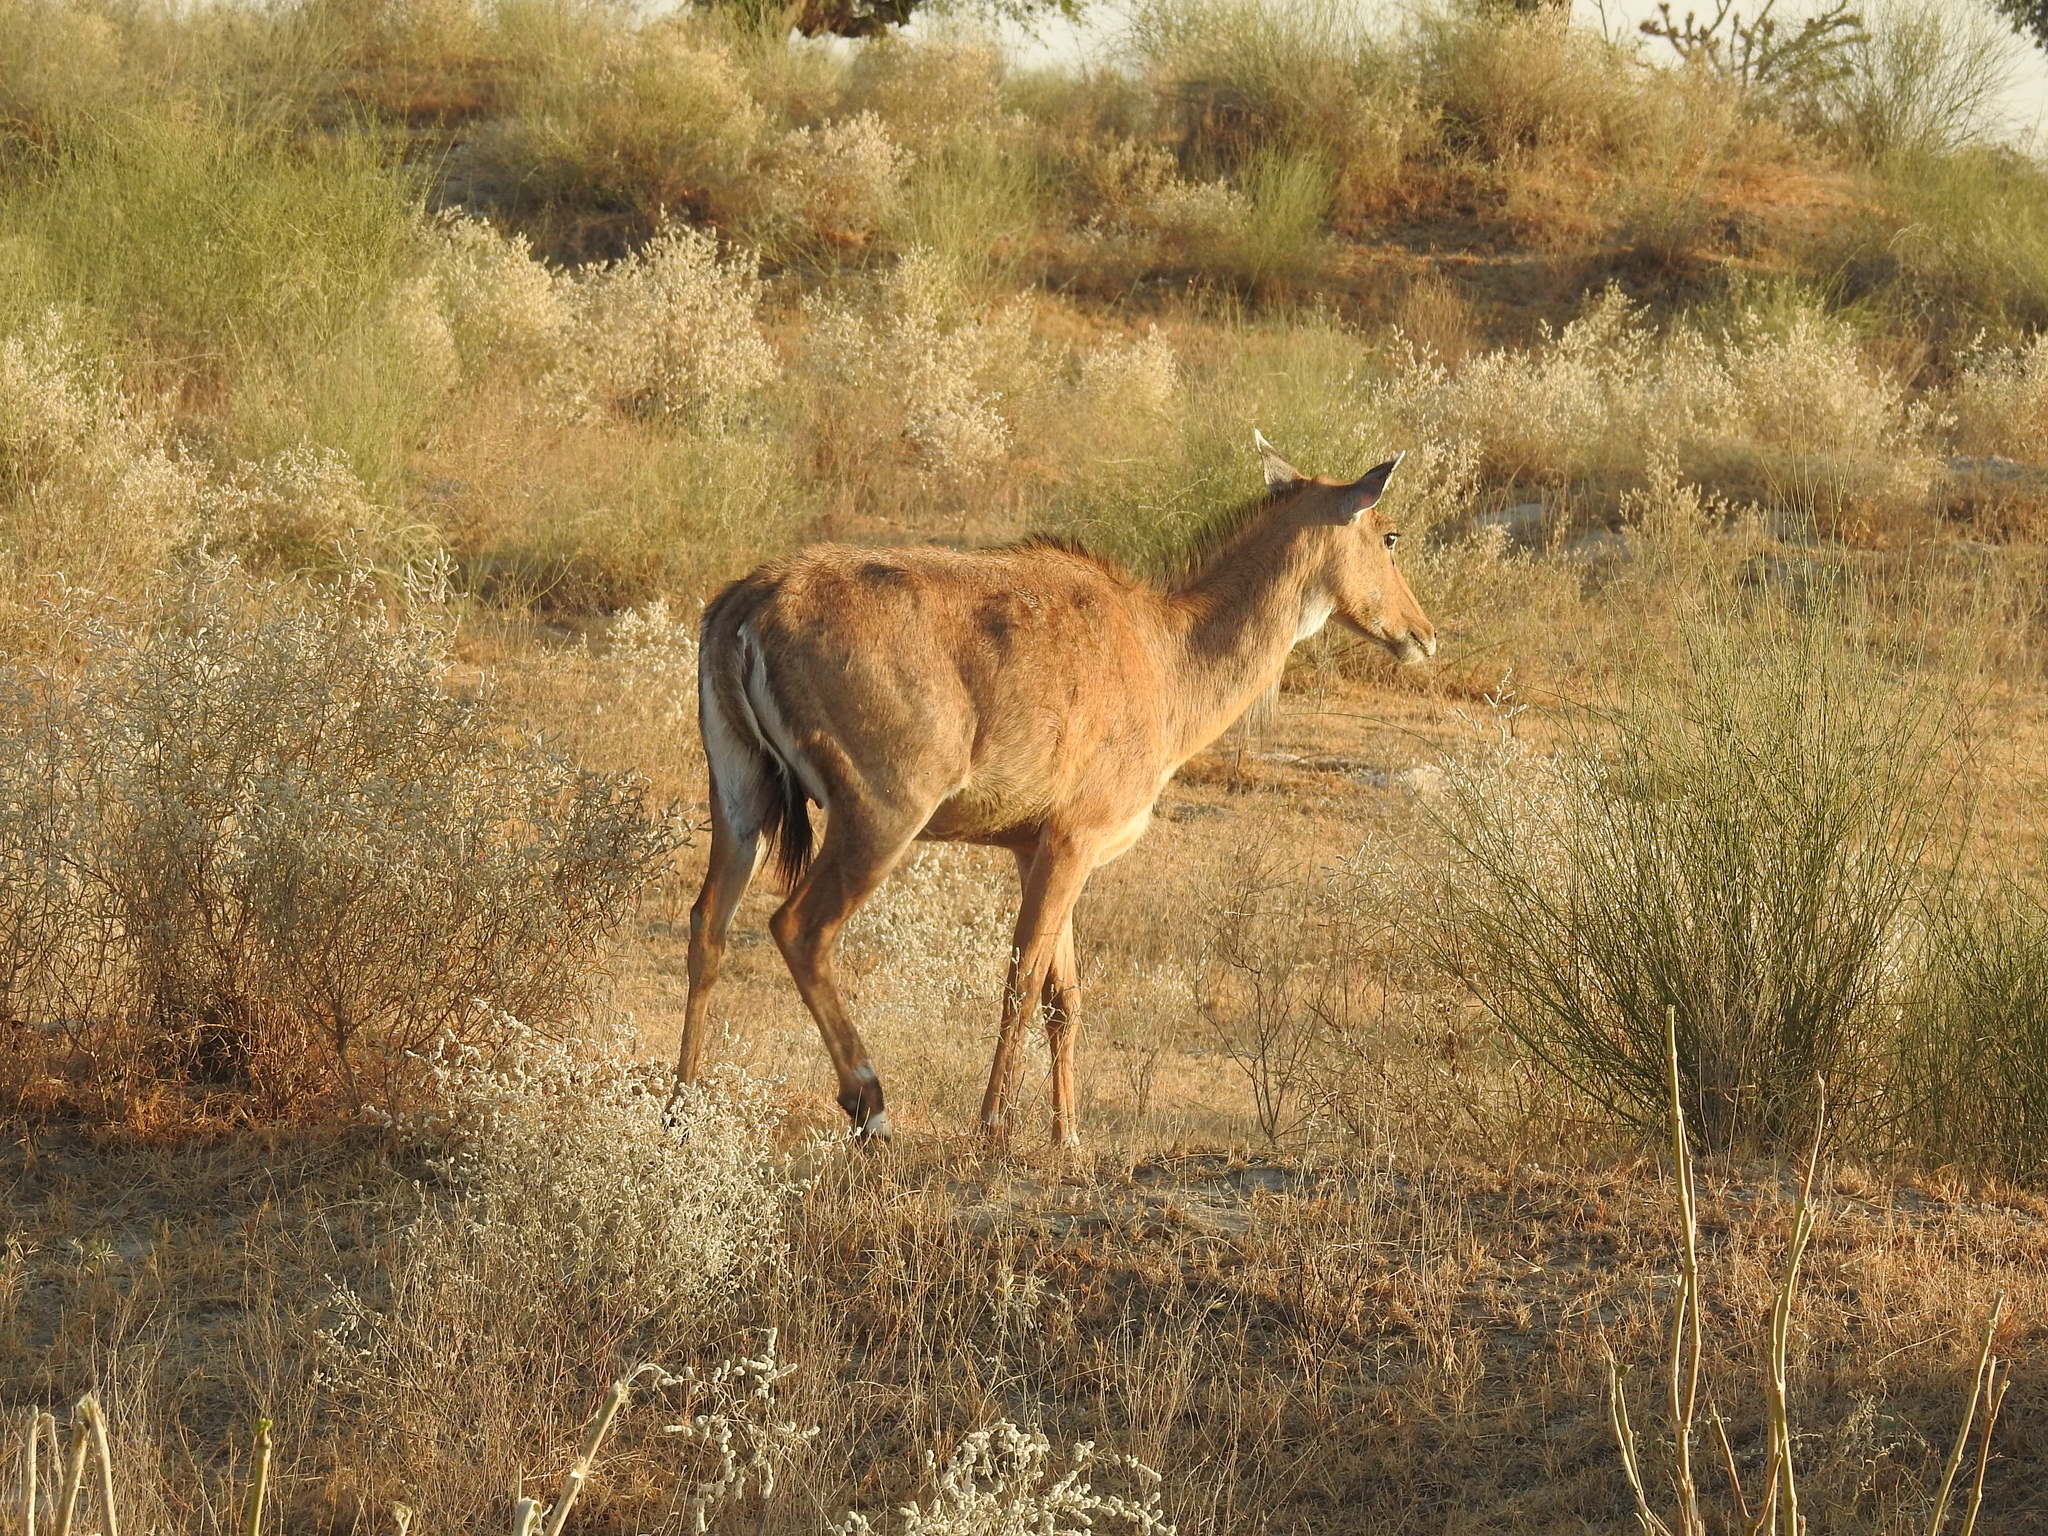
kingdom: Animalia
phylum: Chordata
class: Mammalia
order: Artiodactyla
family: Bovidae
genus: Boselaphus
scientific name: Boselaphus tragocamelus
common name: Nilgai
